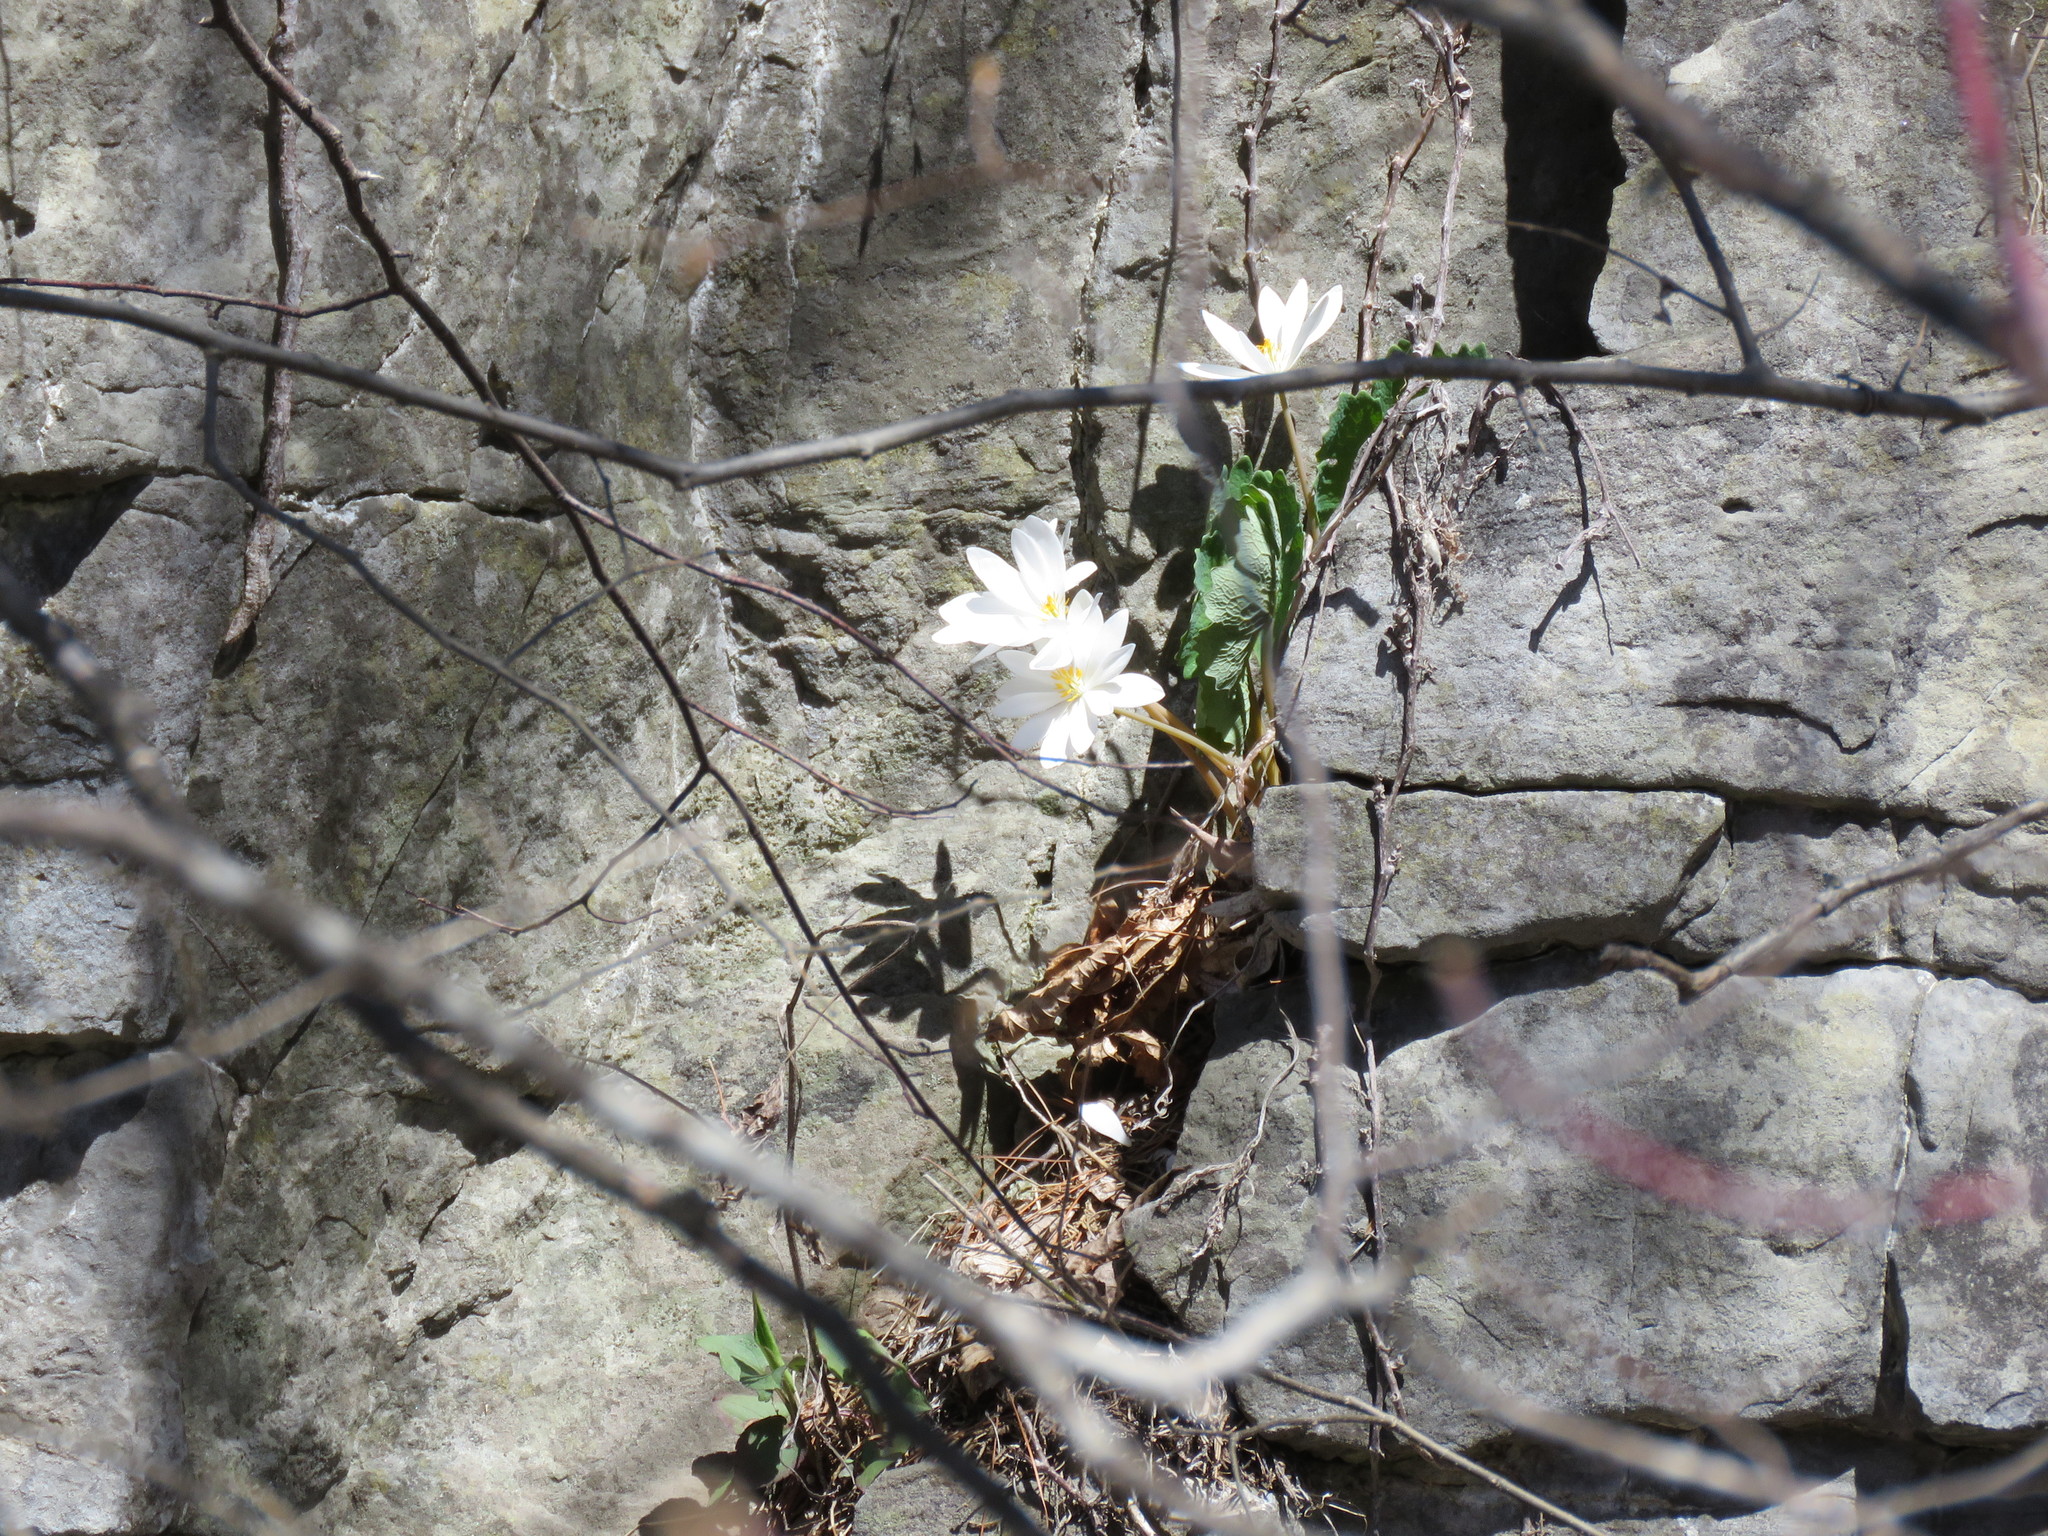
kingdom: Plantae
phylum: Tracheophyta
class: Magnoliopsida
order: Ranunculales
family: Papaveraceae
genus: Sanguinaria
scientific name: Sanguinaria canadensis
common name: Bloodroot
